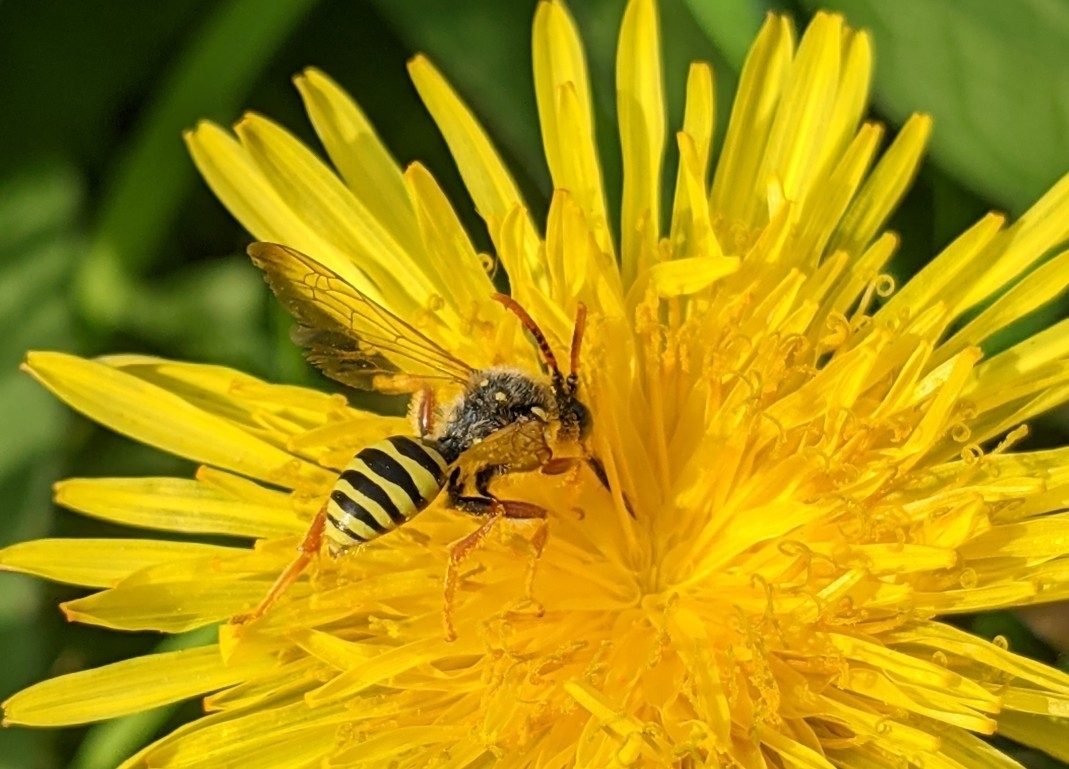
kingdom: Animalia
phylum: Arthropoda
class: Insecta
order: Hymenoptera
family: Apidae
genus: Nomada
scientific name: Nomada goodeniana
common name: Gooden's nomad bee
